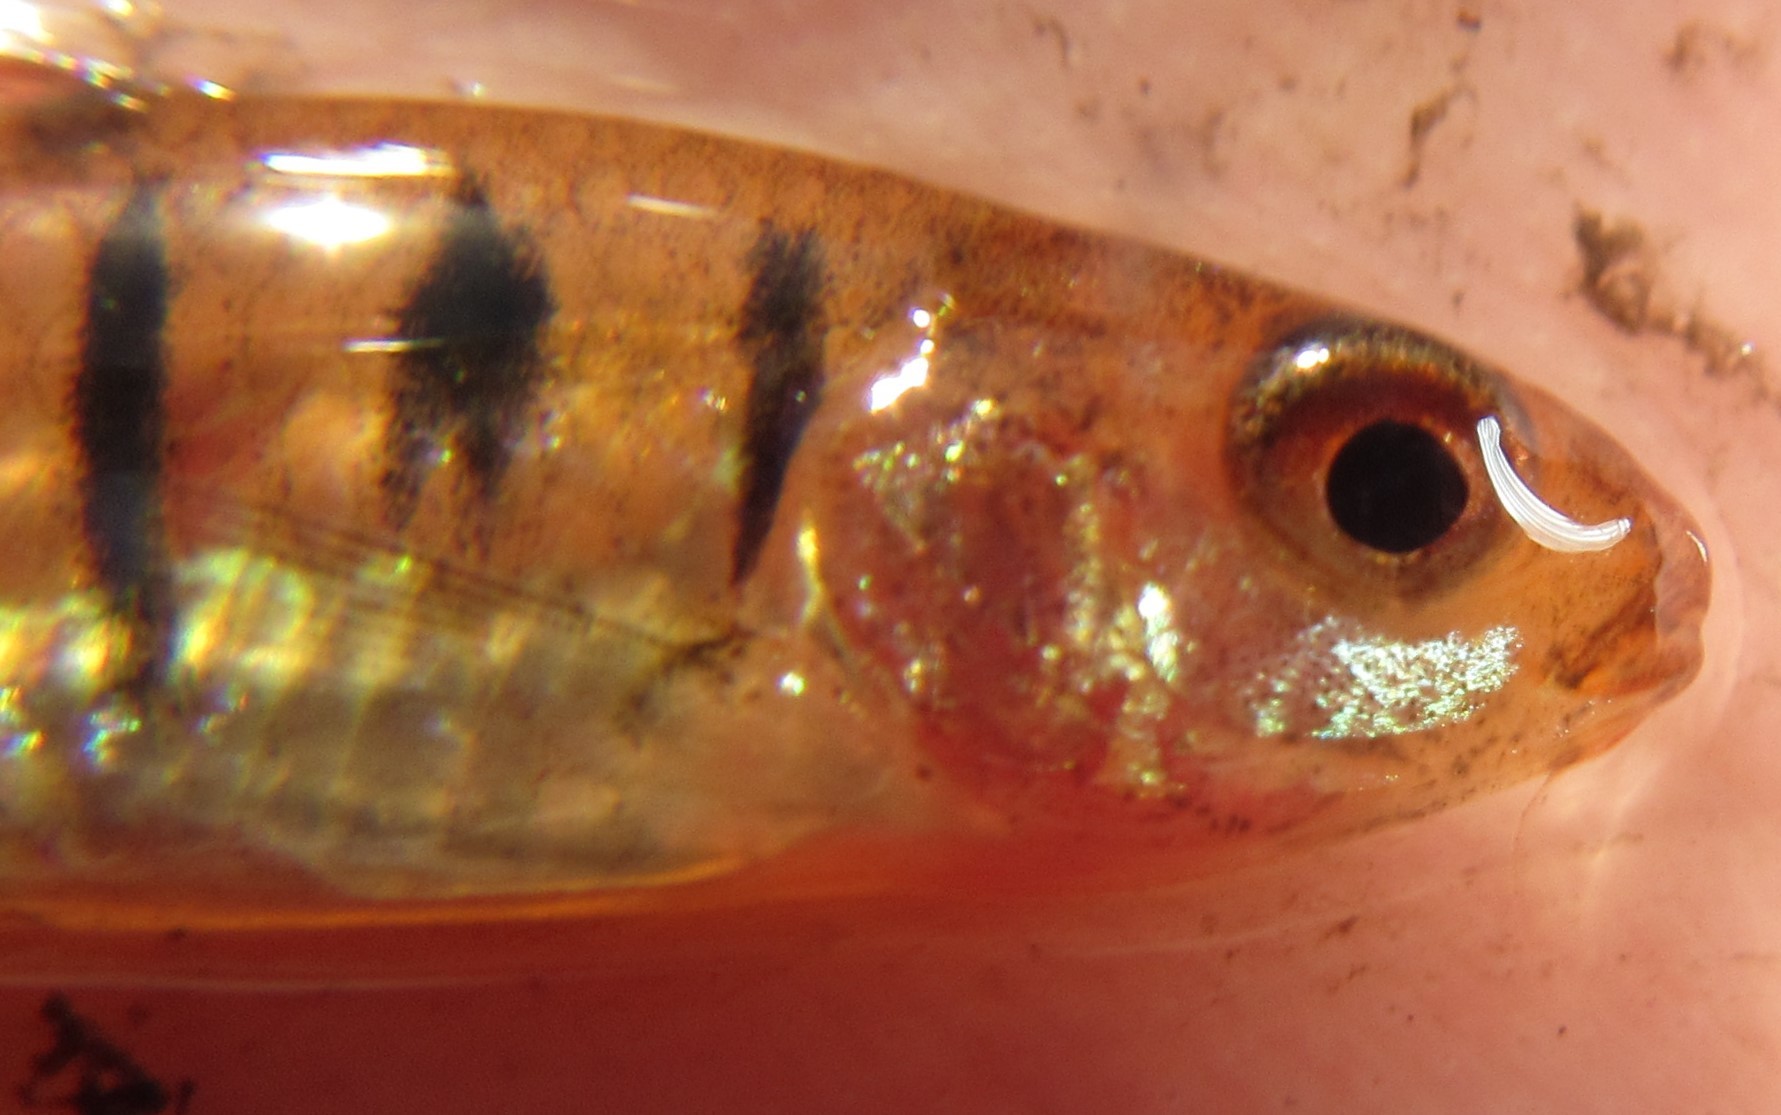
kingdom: Animalia
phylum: Chordata
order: Cypriniformes
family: Cyprinidae
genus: Enteromius
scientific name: Enteromius fasciolatus
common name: Red barb
